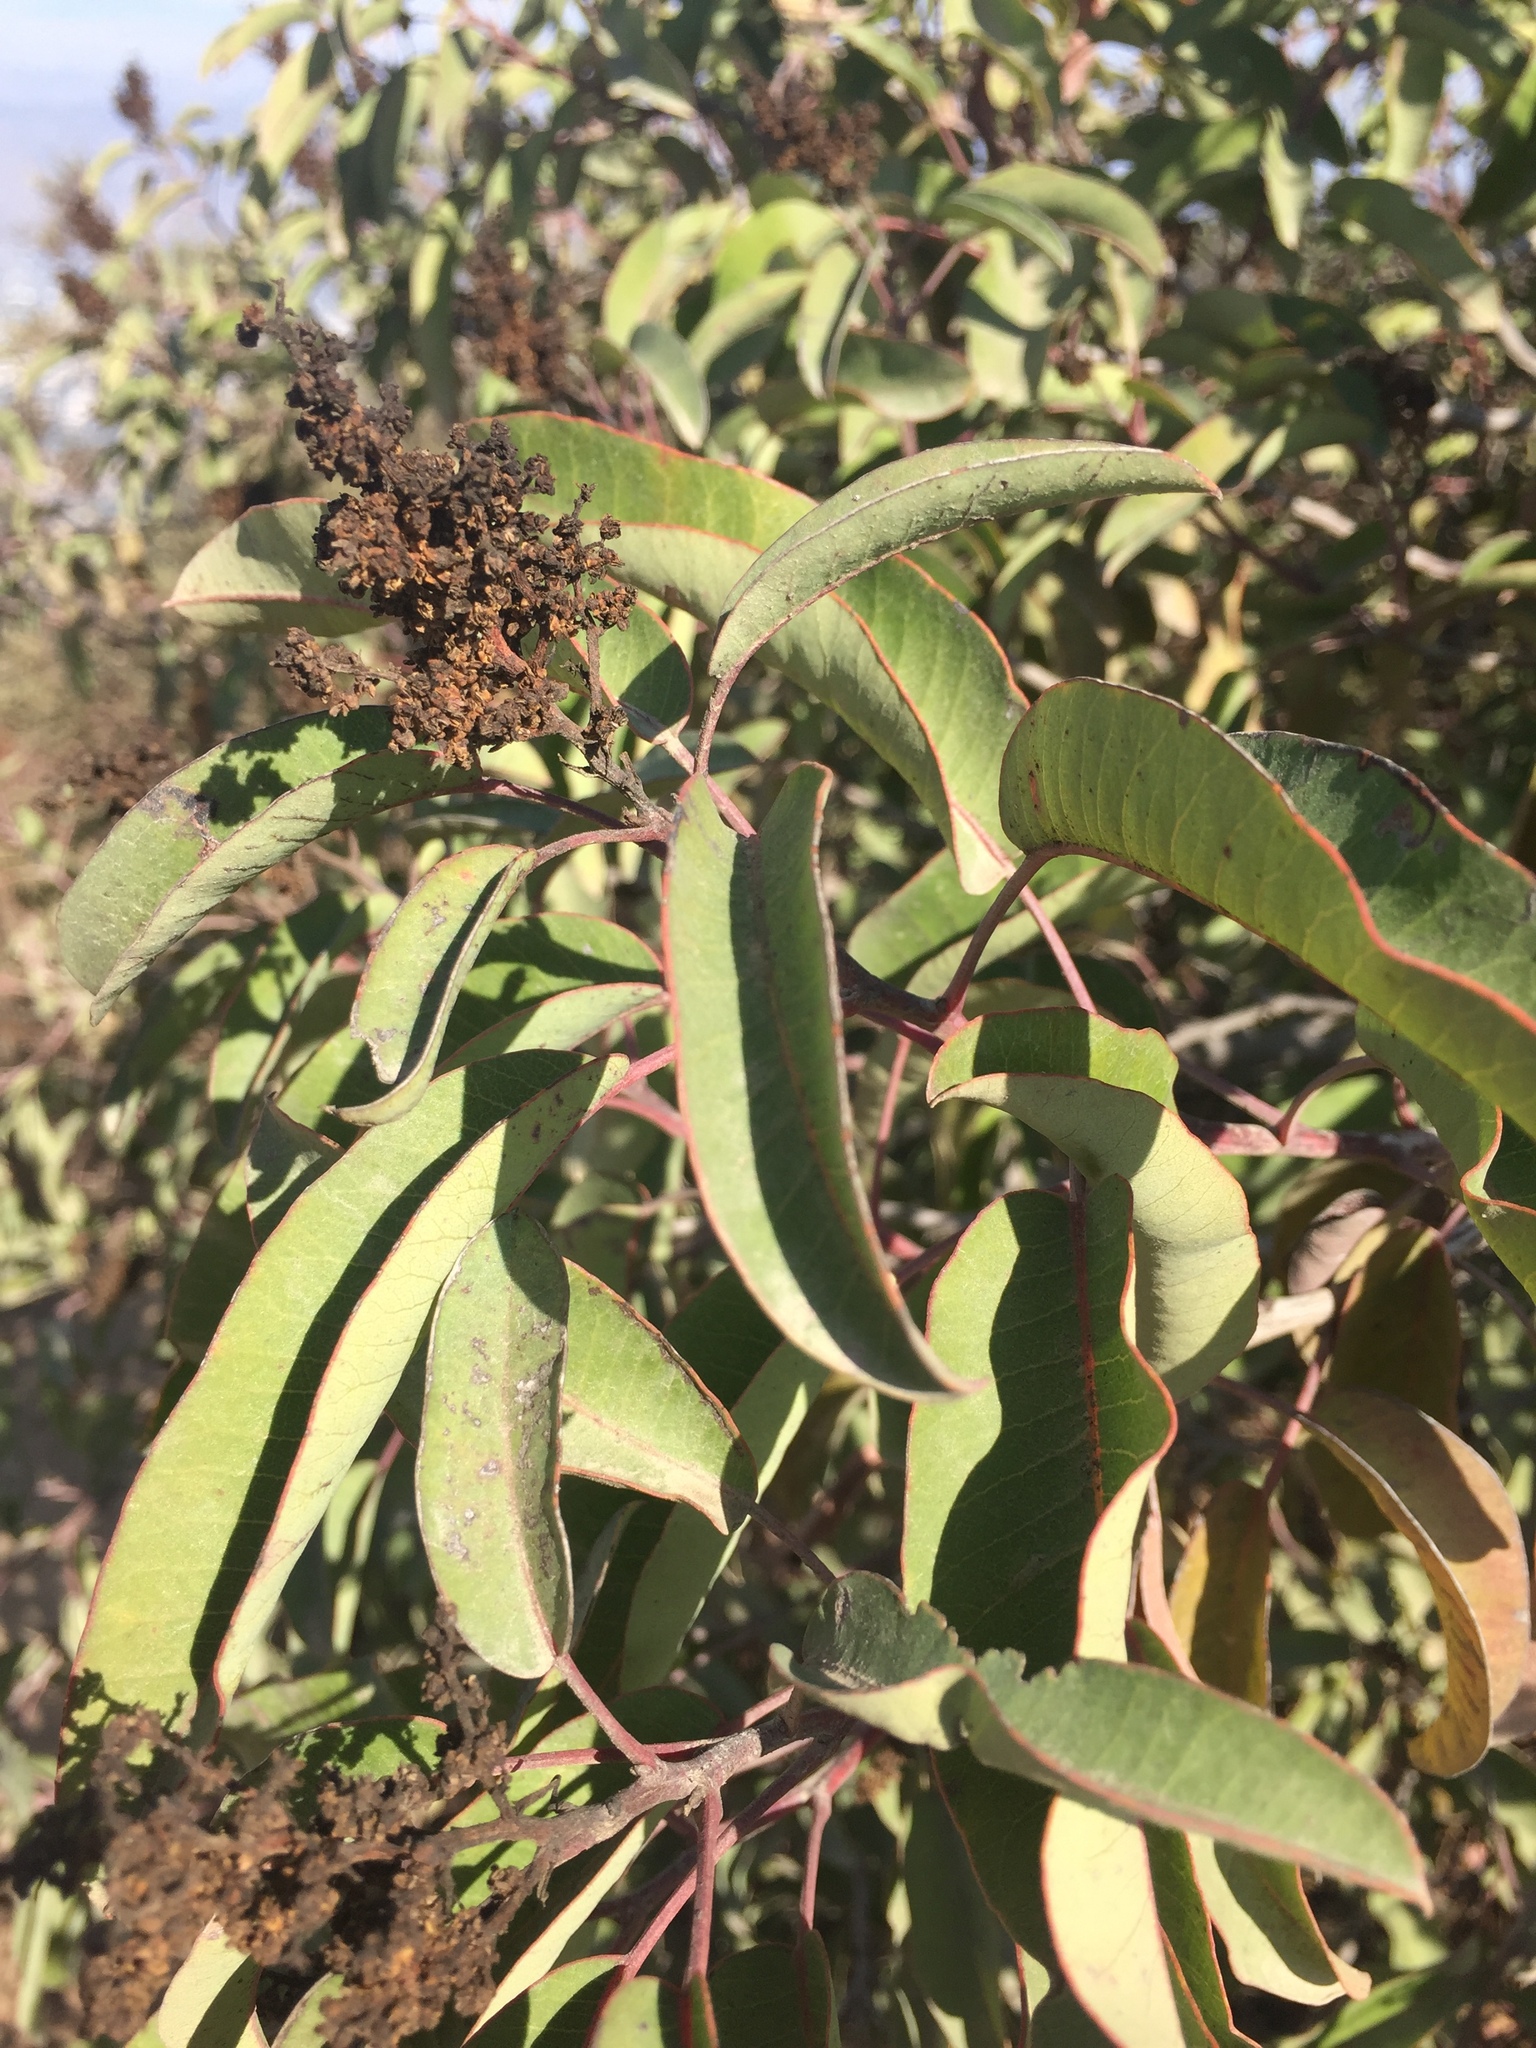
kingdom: Plantae
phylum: Tracheophyta
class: Magnoliopsida
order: Sapindales
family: Anacardiaceae
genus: Malosma
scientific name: Malosma laurina
